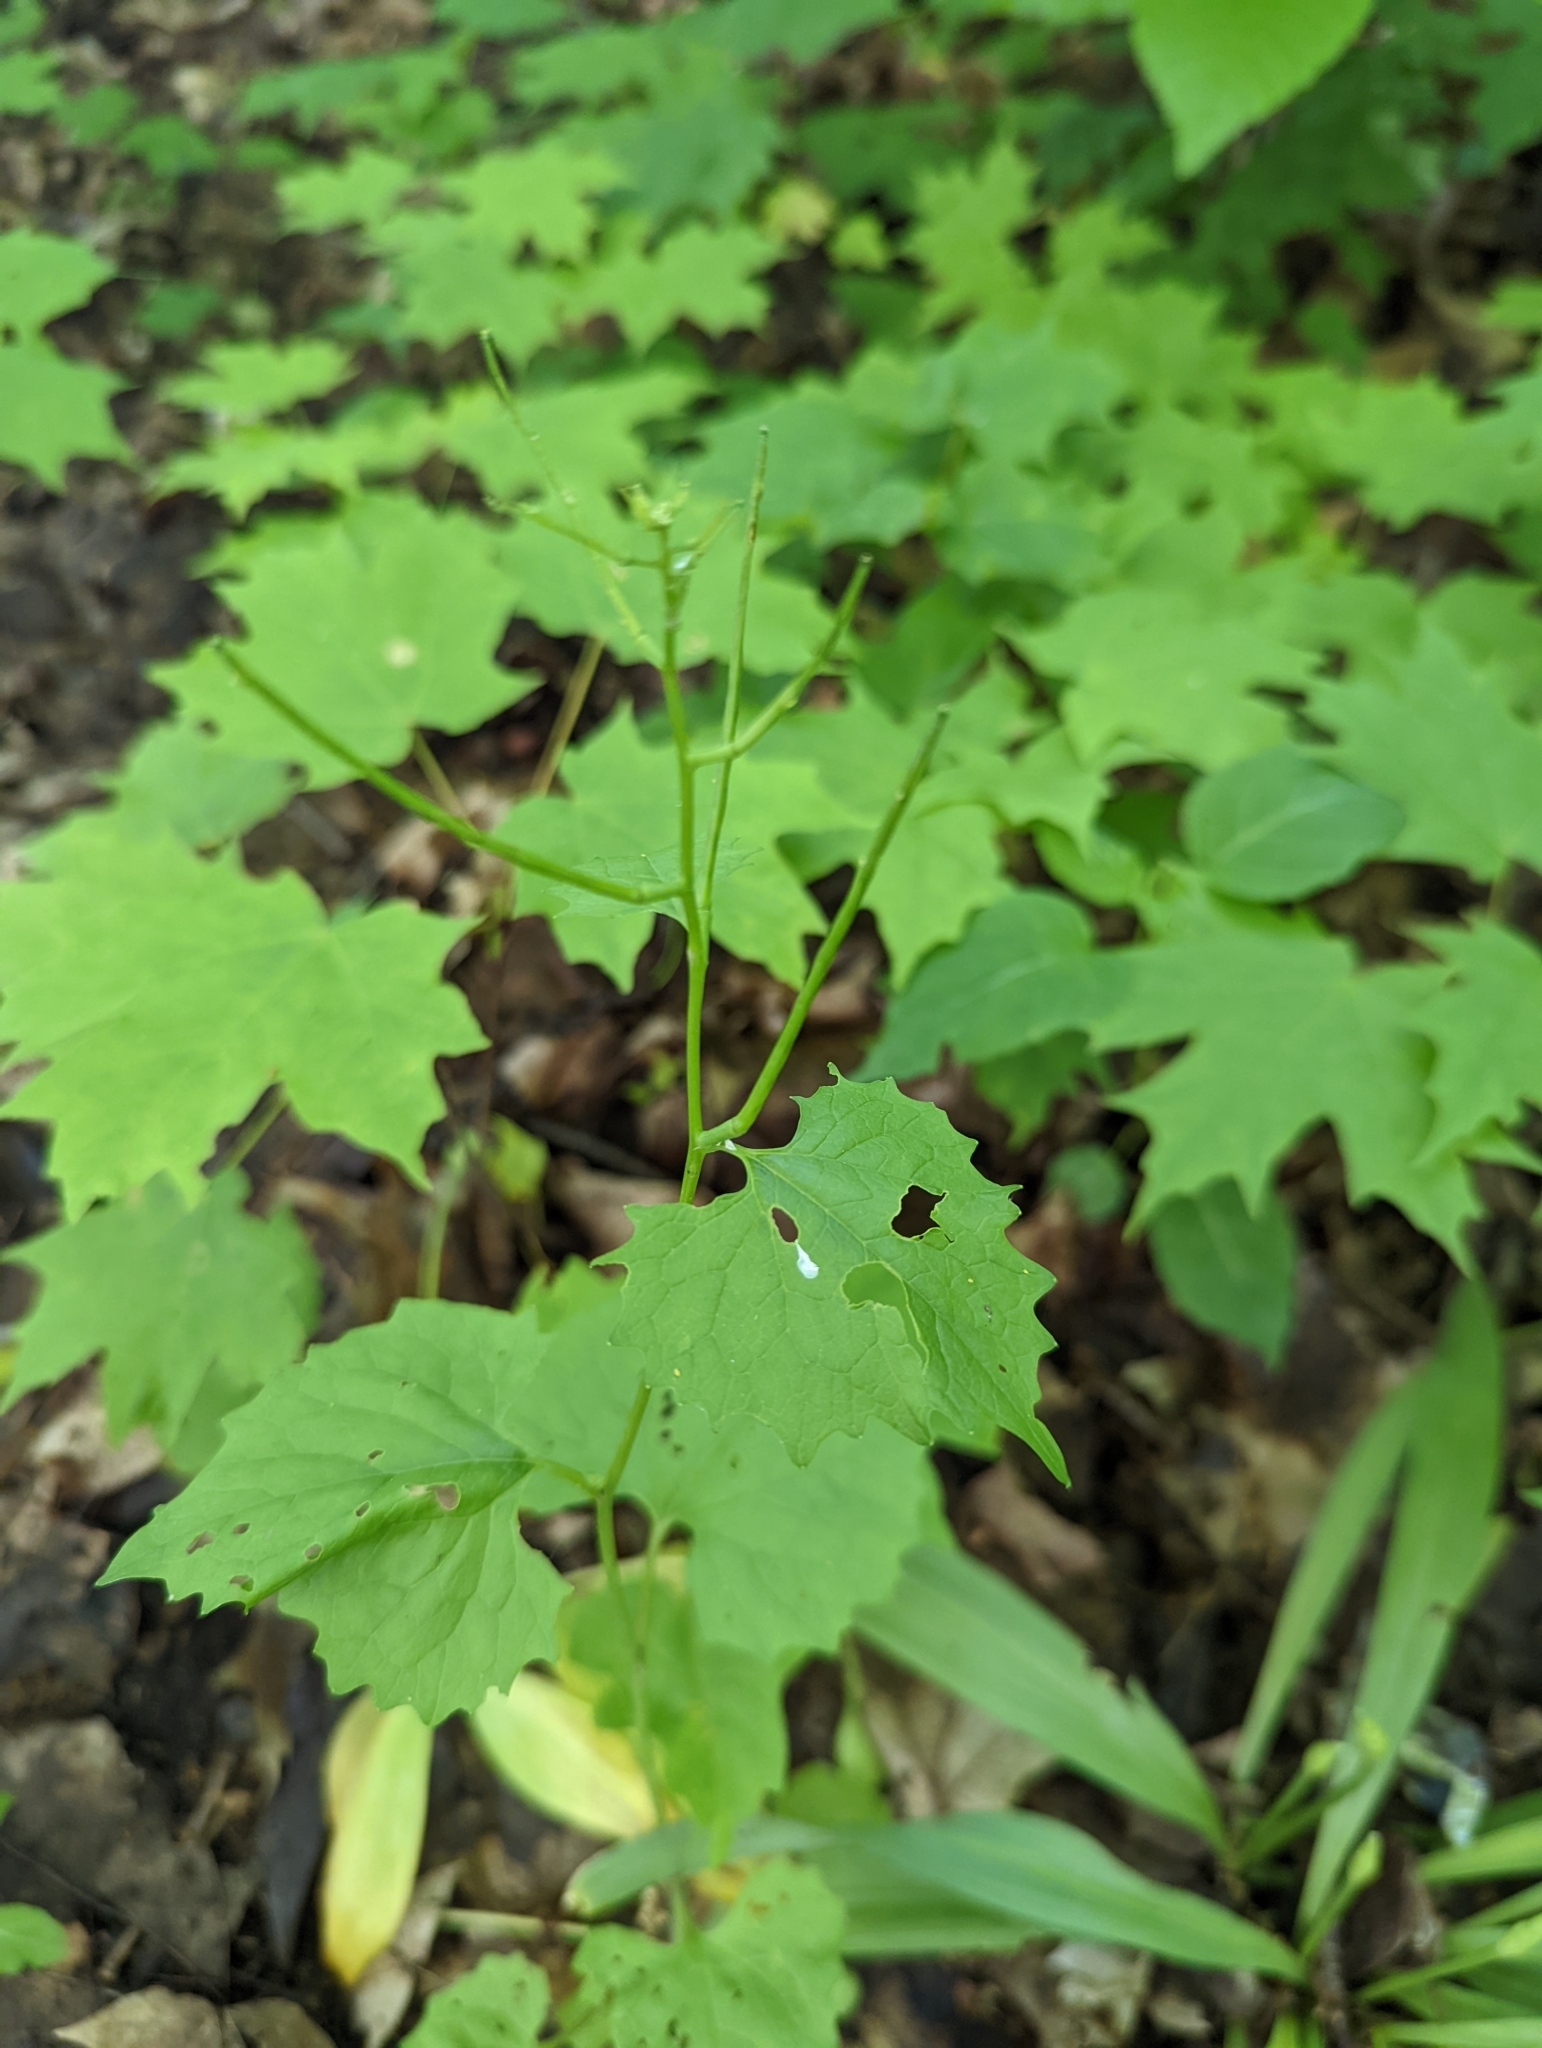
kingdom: Plantae
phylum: Tracheophyta
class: Magnoliopsida
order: Brassicales
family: Brassicaceae
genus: Alliaria
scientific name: Alliaria petiolata
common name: Garlic mustard
